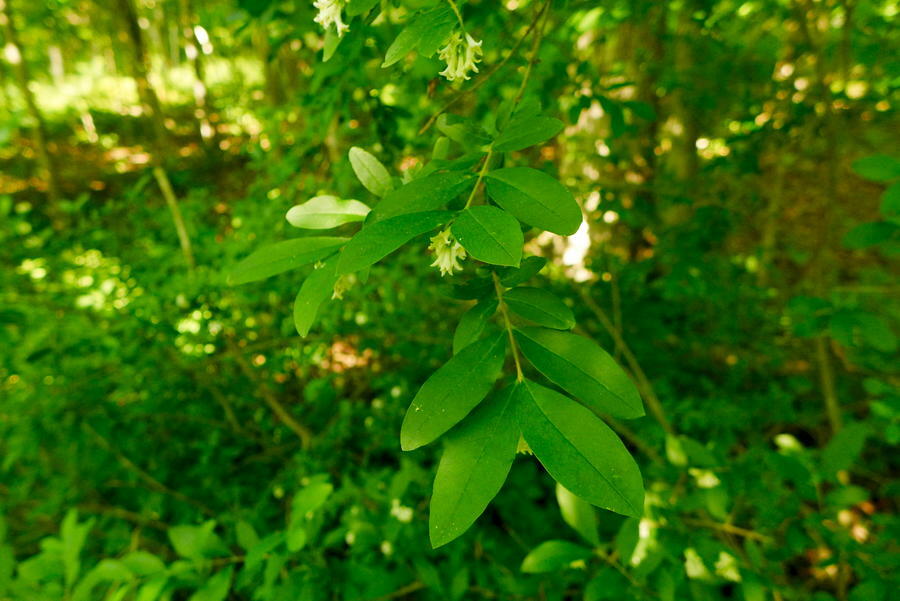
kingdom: Plantae
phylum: Tracheophyta
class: Magnoliopsida
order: Lamiales
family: Oleaceae
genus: Ligustrum
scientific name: Ligustrum obtusifolium
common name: Border privet
